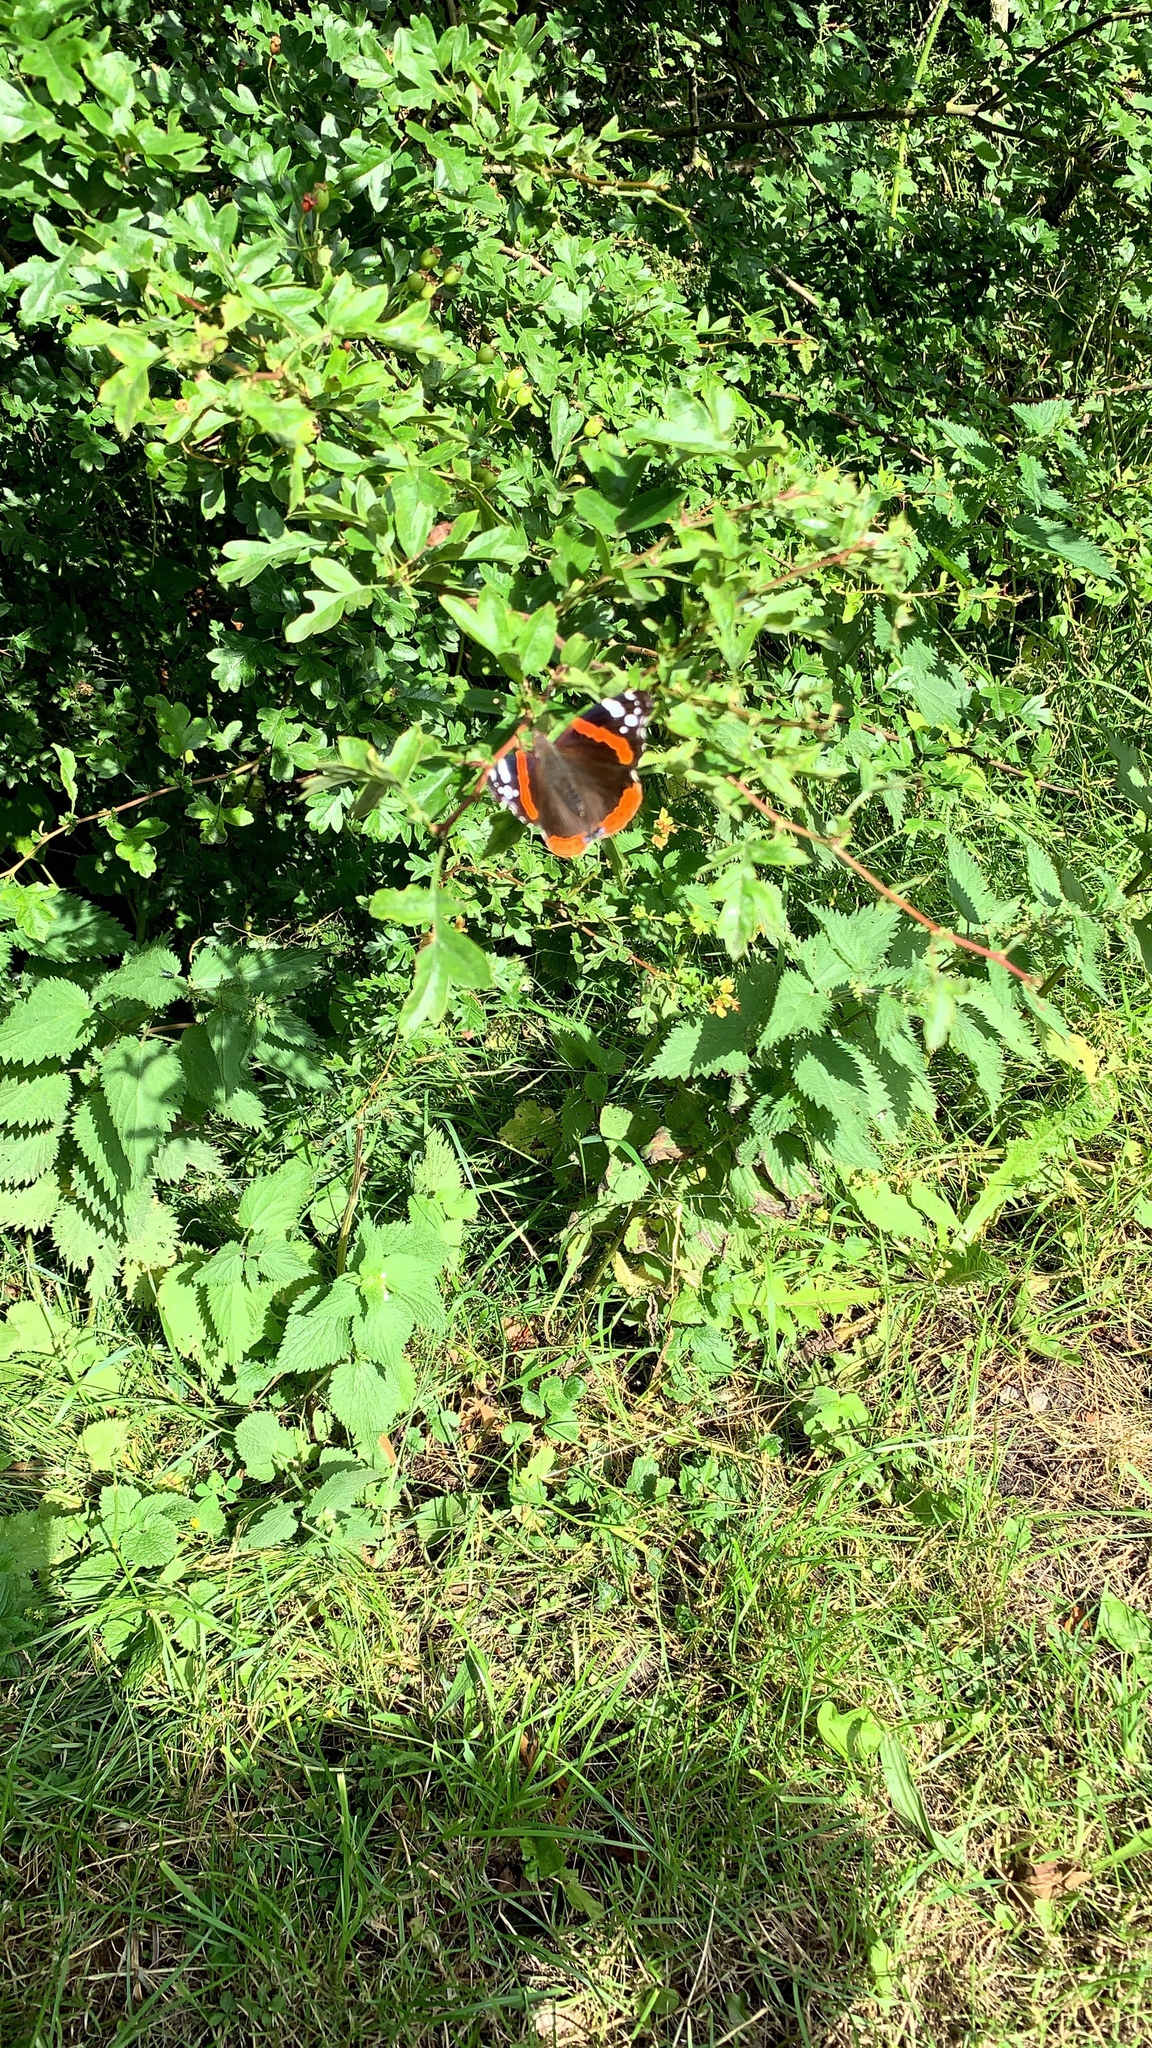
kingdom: Animalia
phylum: Arthropoda
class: Insecta
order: Lepidoptera
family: Nymphalidae
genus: Vanessa
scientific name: Vanessa atalanta
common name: Red admiral
